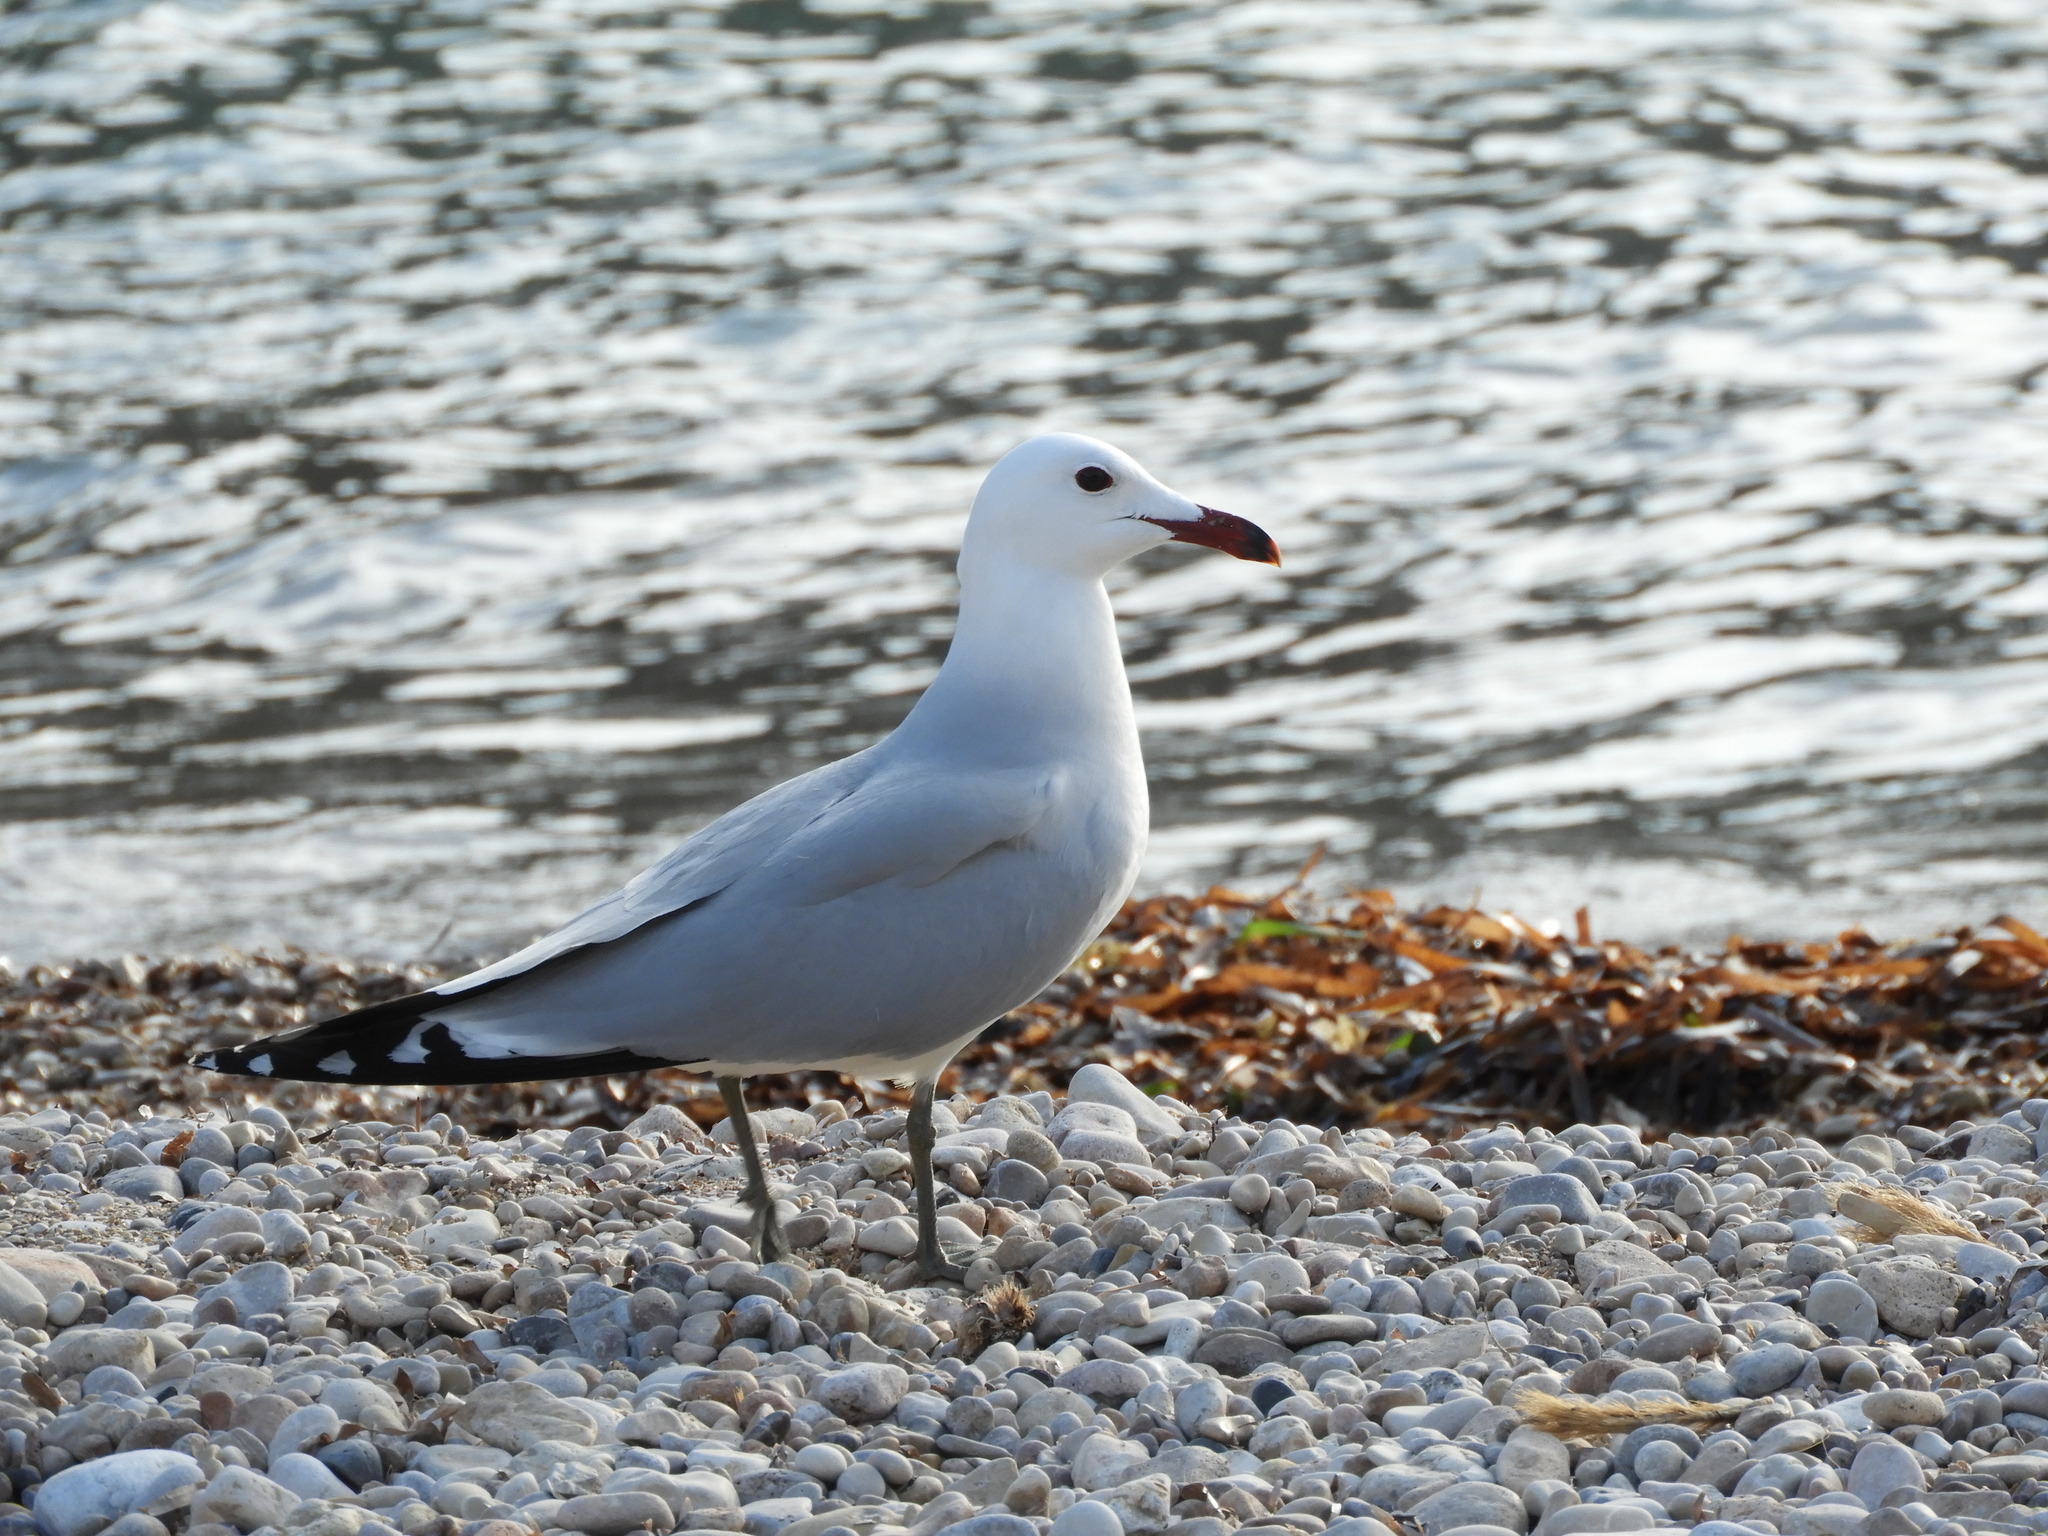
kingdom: Animalia
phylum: Chordata
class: Aves
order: Charadriiformes
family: Laridae
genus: Ichthyaetus
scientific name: Ichthyaetus audouinii
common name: Audouin's gull
